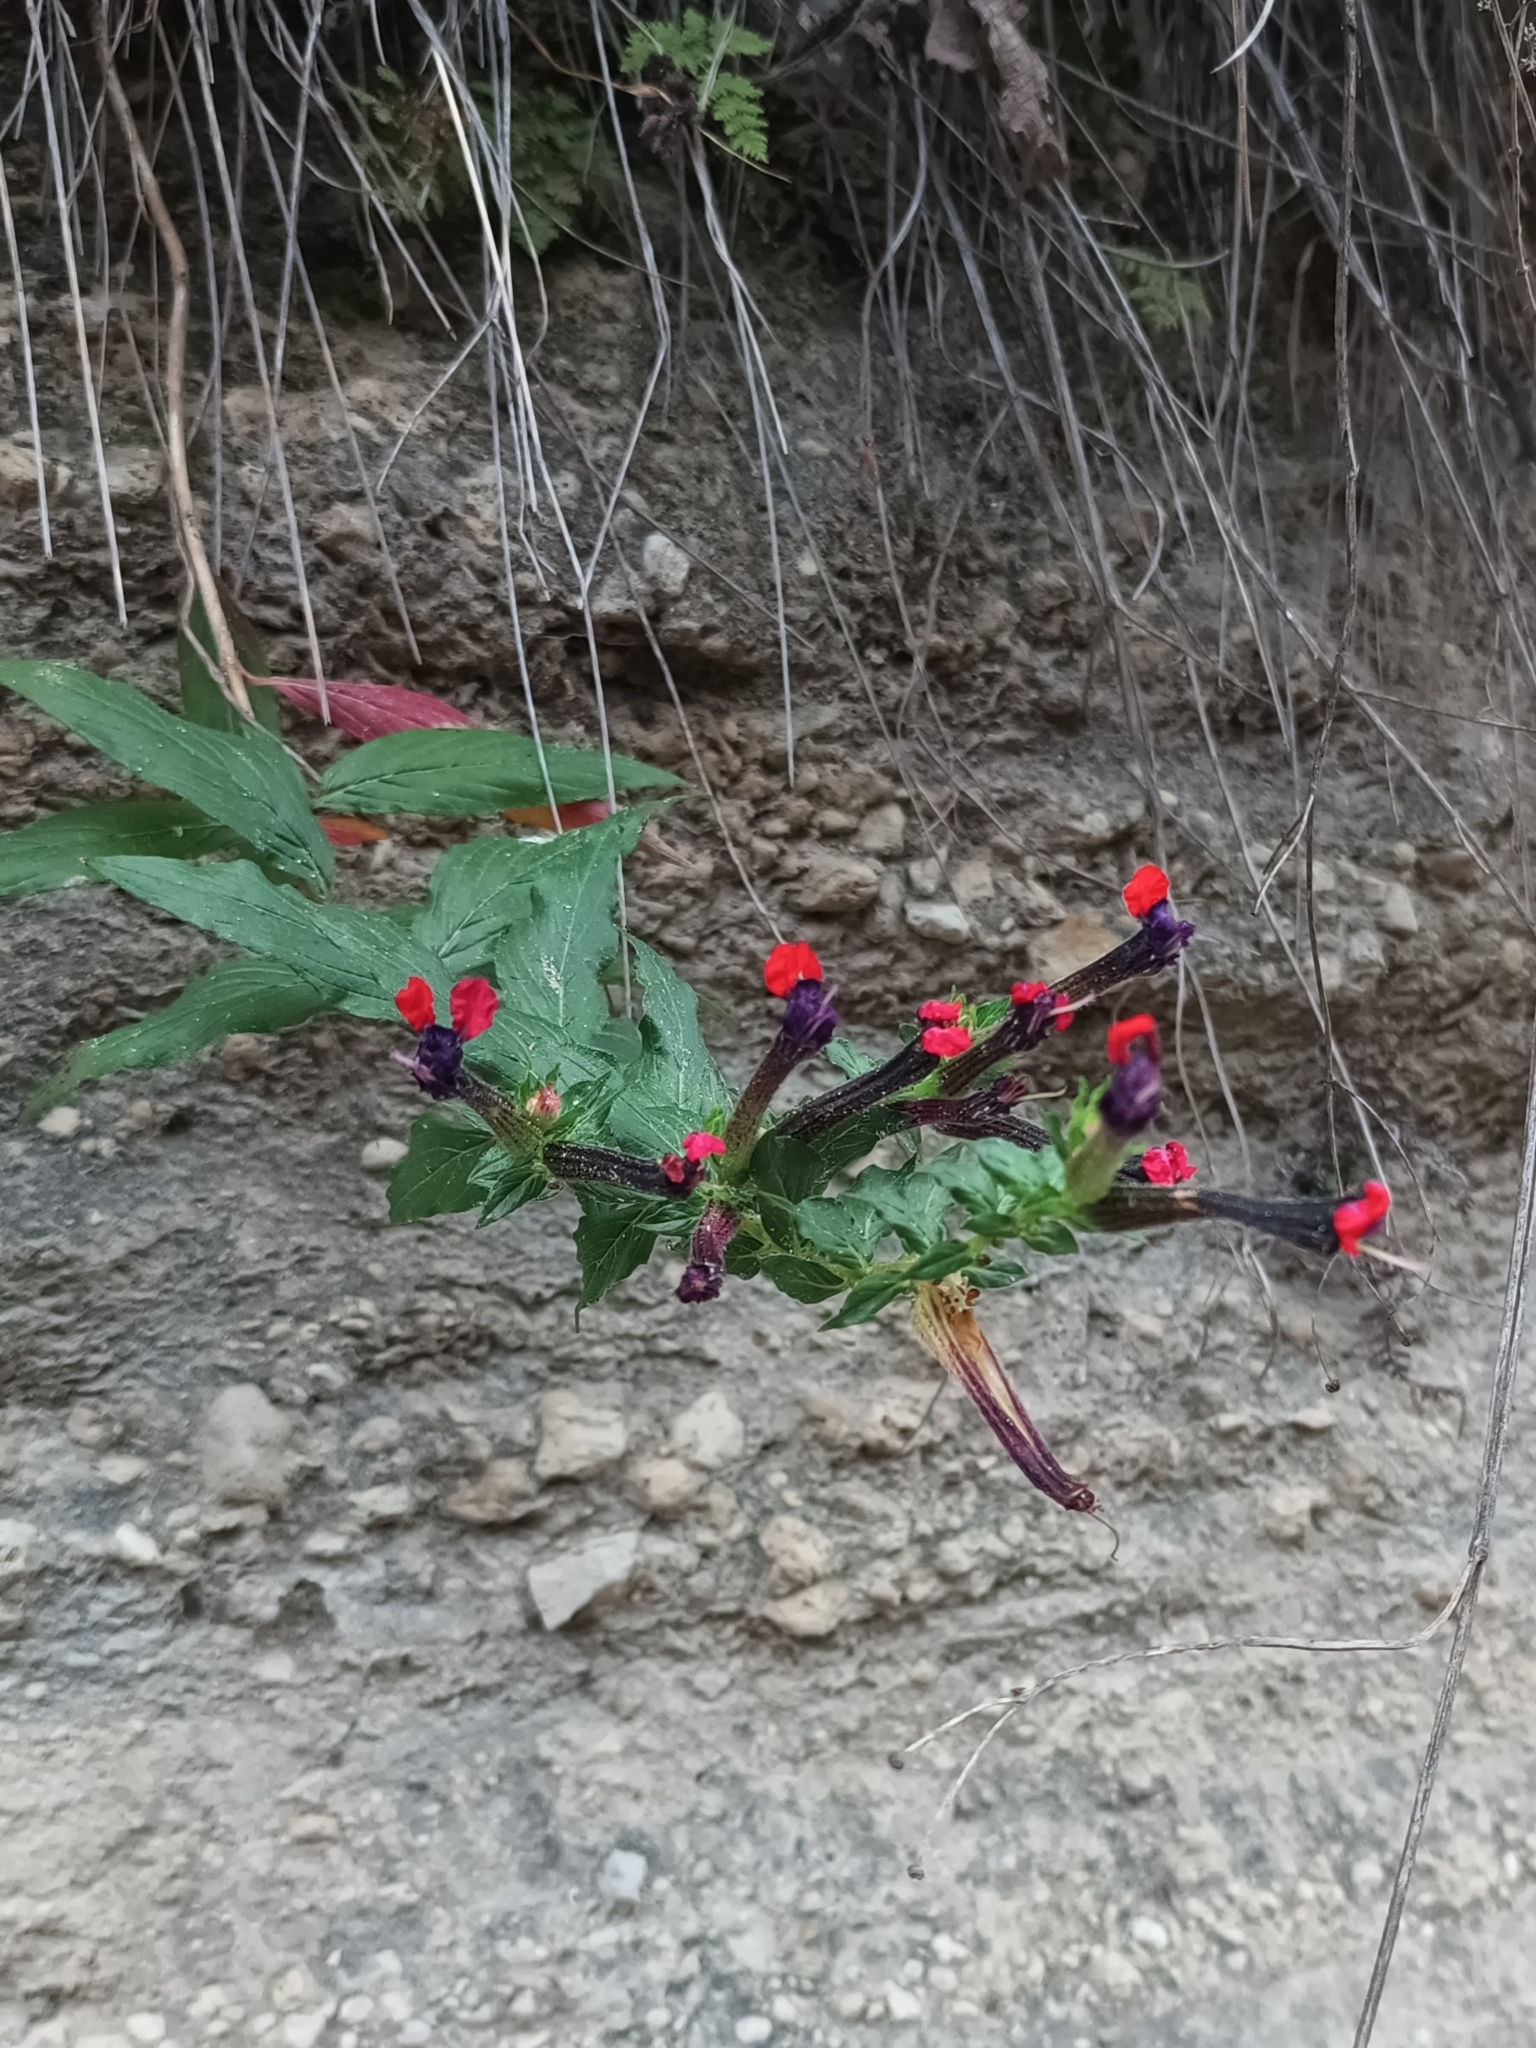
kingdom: Plantae
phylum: Tracheophyta
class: Magnoliopsida
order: Myrtales
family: Lythraceae
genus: Cuphea
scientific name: Cuphea llavea
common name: Tiny-mice
